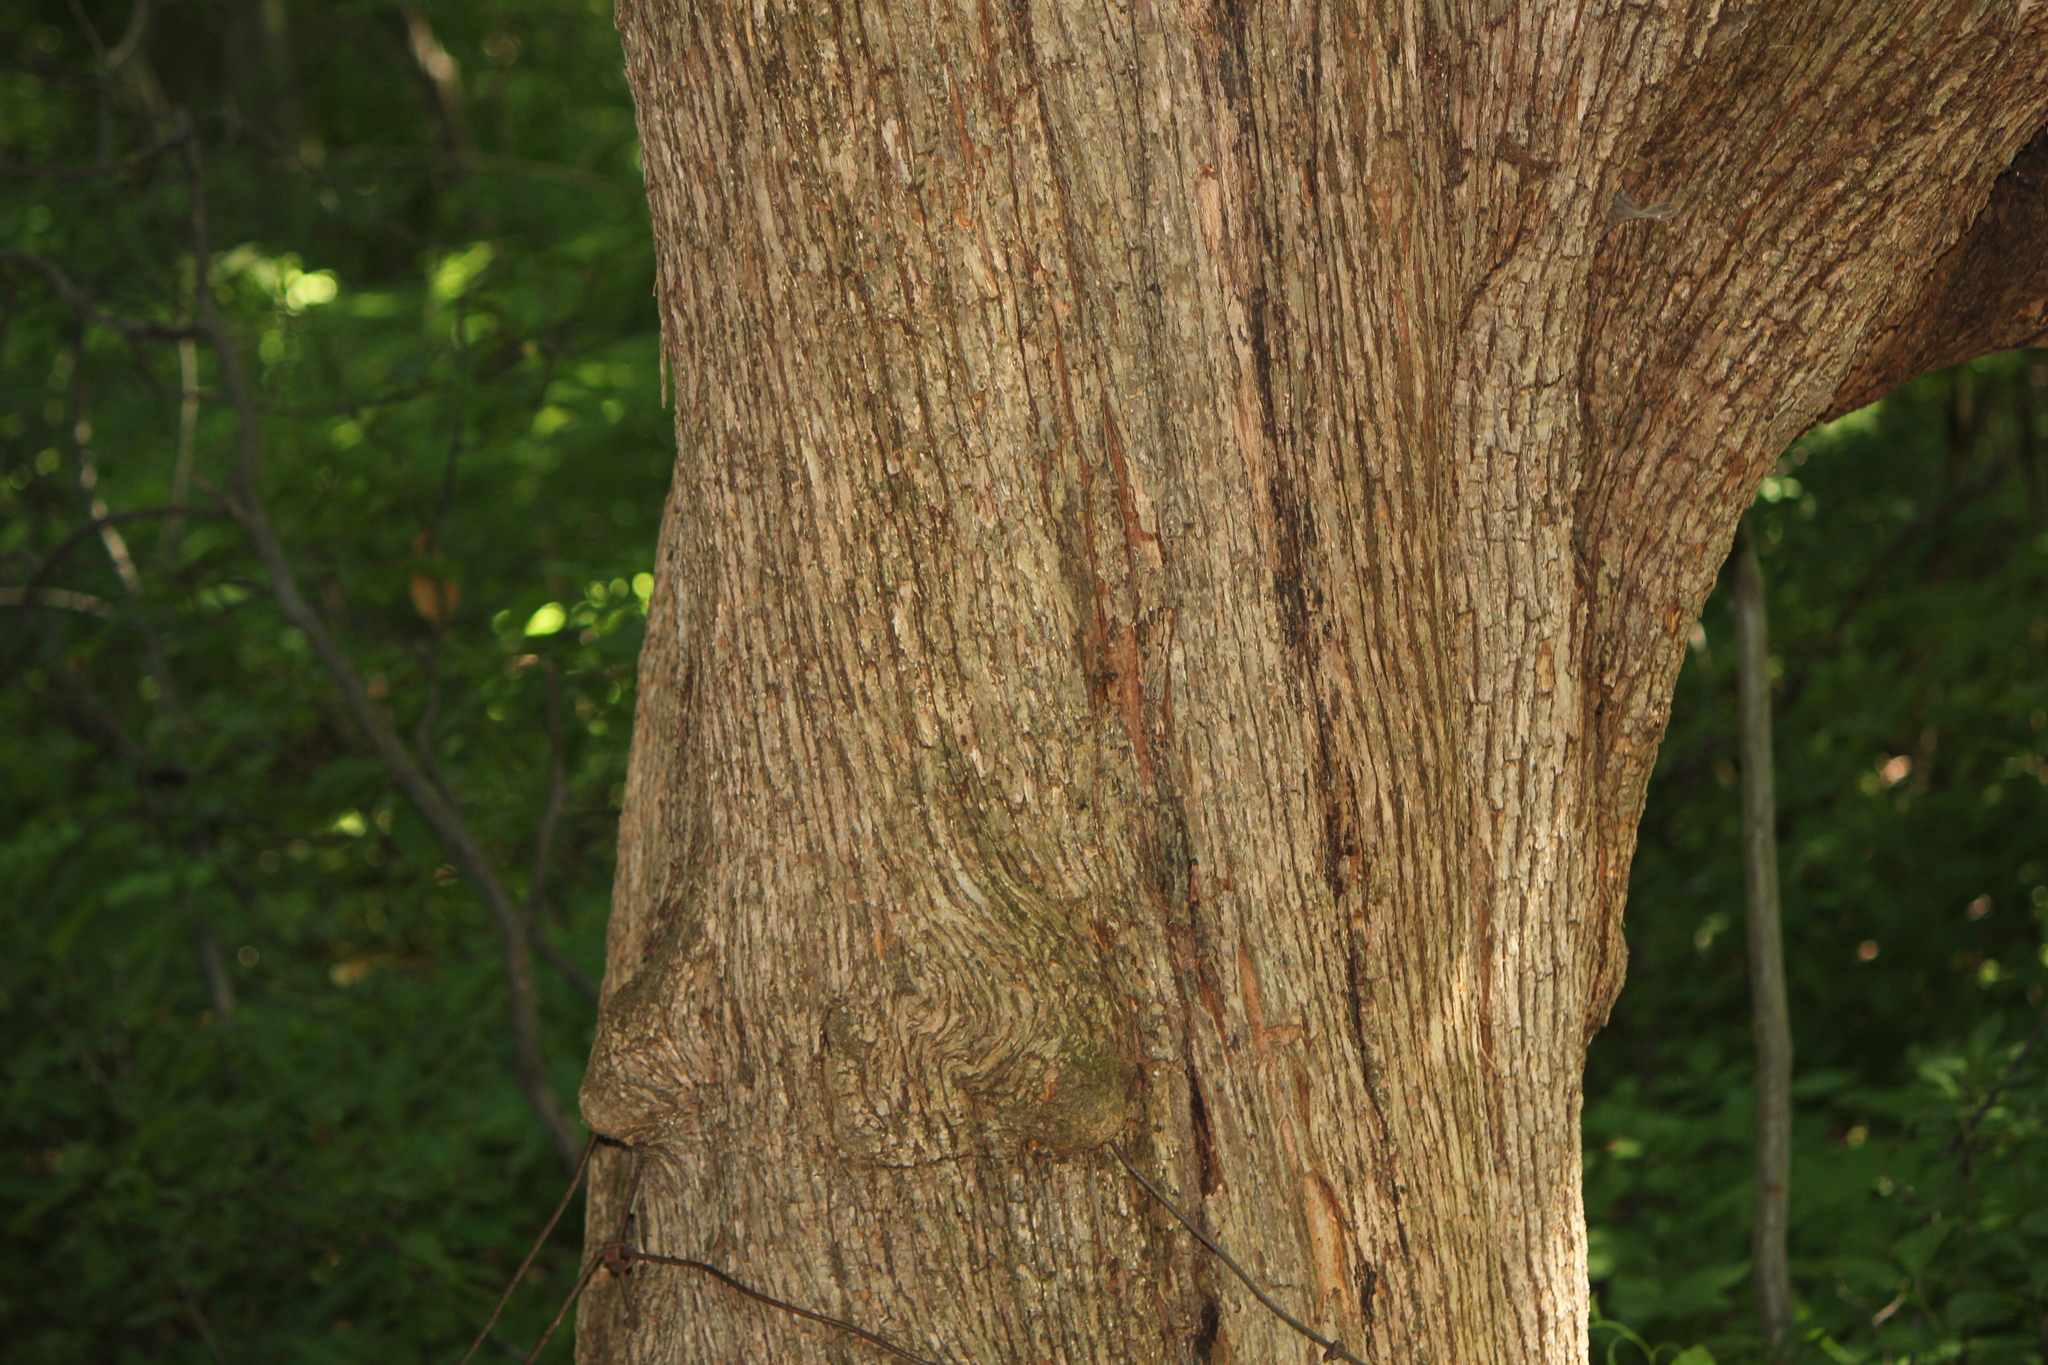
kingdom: Plantae
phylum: Tracheophyta
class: Magnoliopsida
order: Fagales
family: Betulaceae
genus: Ostrya
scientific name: Ostrya virginiana
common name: Ironwood
